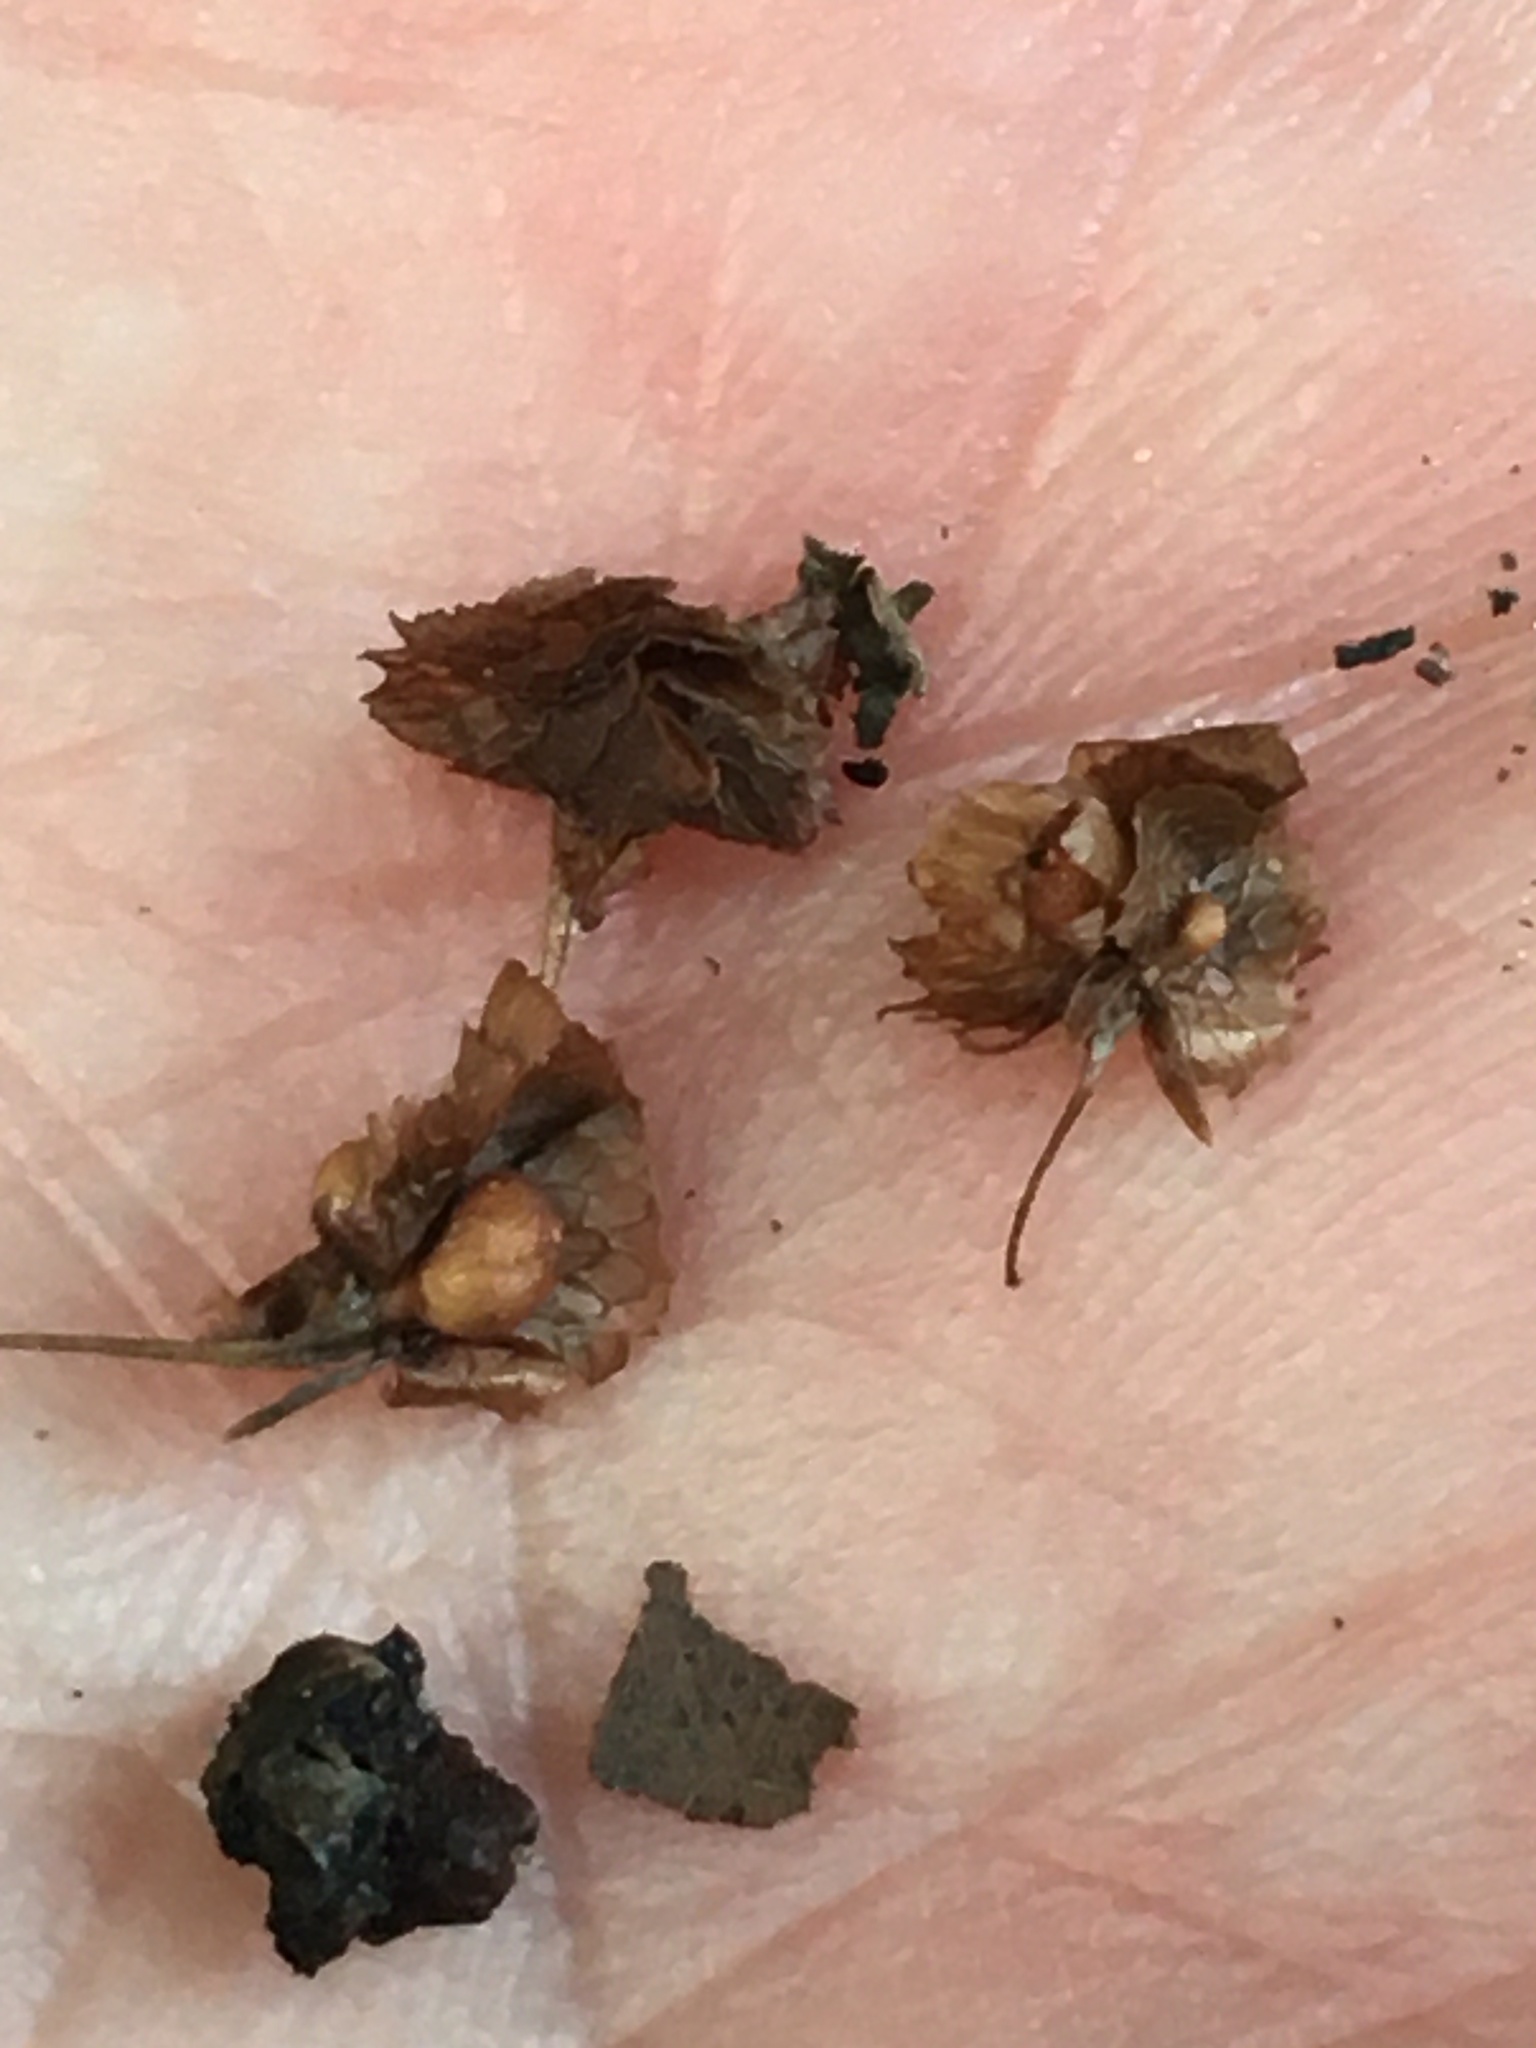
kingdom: Plantae
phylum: Tracheophyta
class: Magnoliopsida
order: Caryophyllales
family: Polygonaceae
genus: Rumex
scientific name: Rumex cristatus
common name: Greek dock
